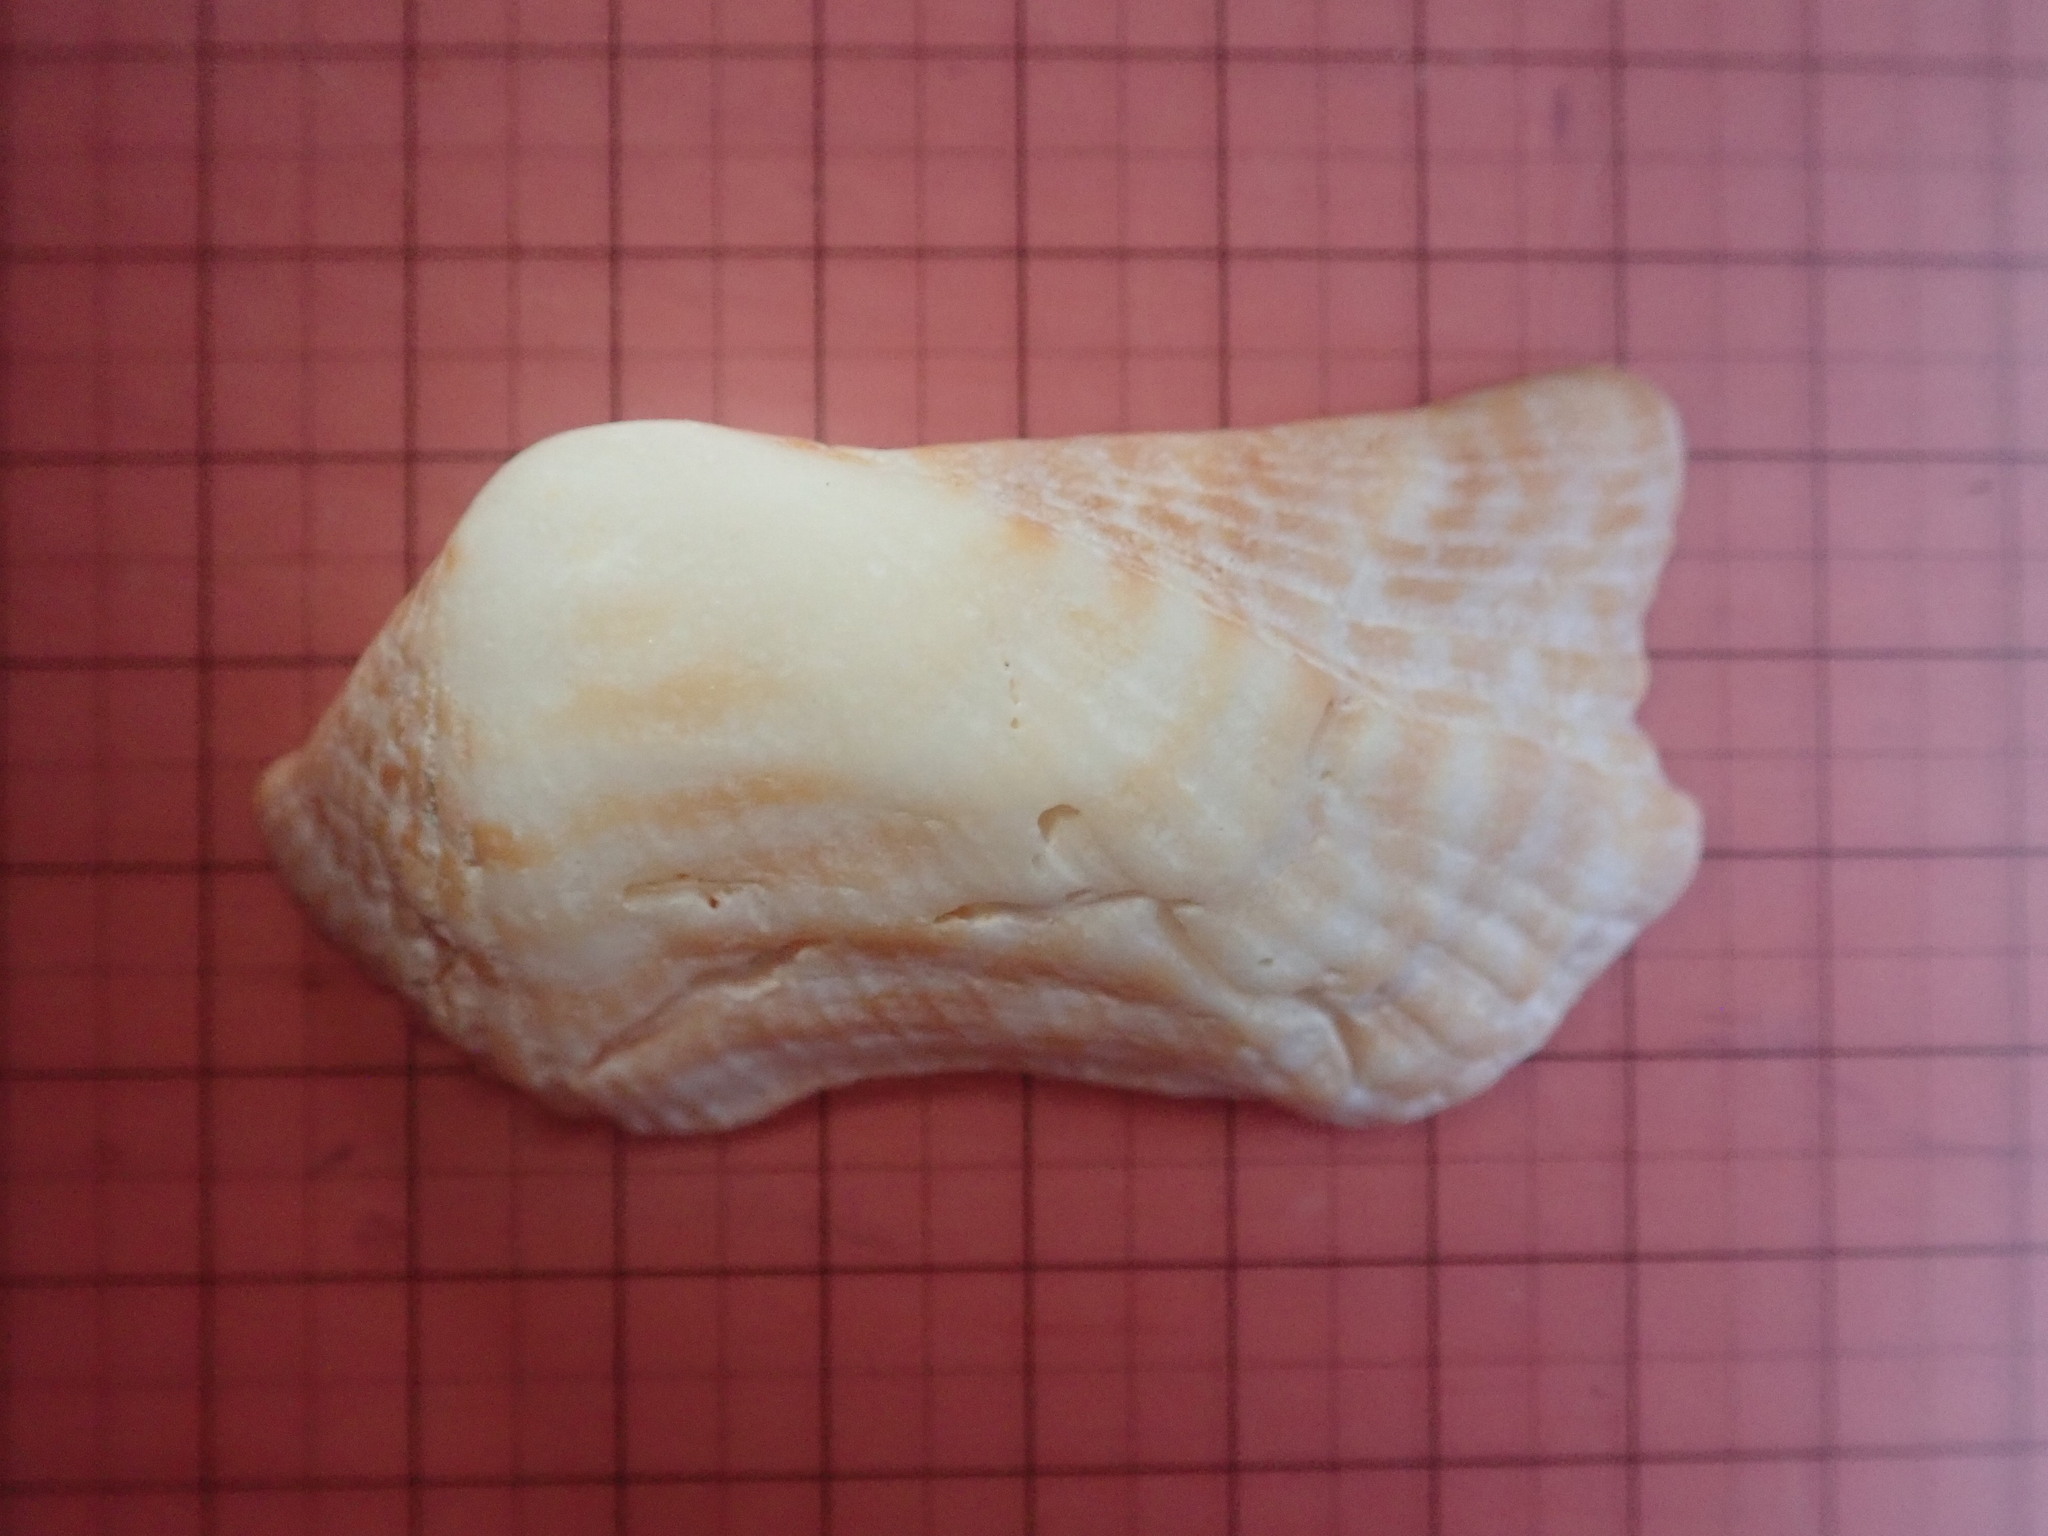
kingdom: Animalia
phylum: Mollusca
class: Bivalvia
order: Arcida
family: Arcidae
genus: Arca
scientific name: Arca pacifica
